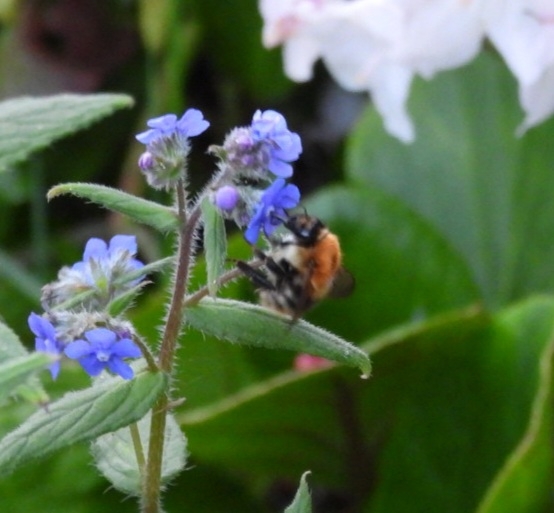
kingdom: Animalia
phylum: Arthropoda
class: Insecta
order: Hymenoptera
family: Apidae
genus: Bombus
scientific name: Bombus pascuorum
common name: Common carder bee
